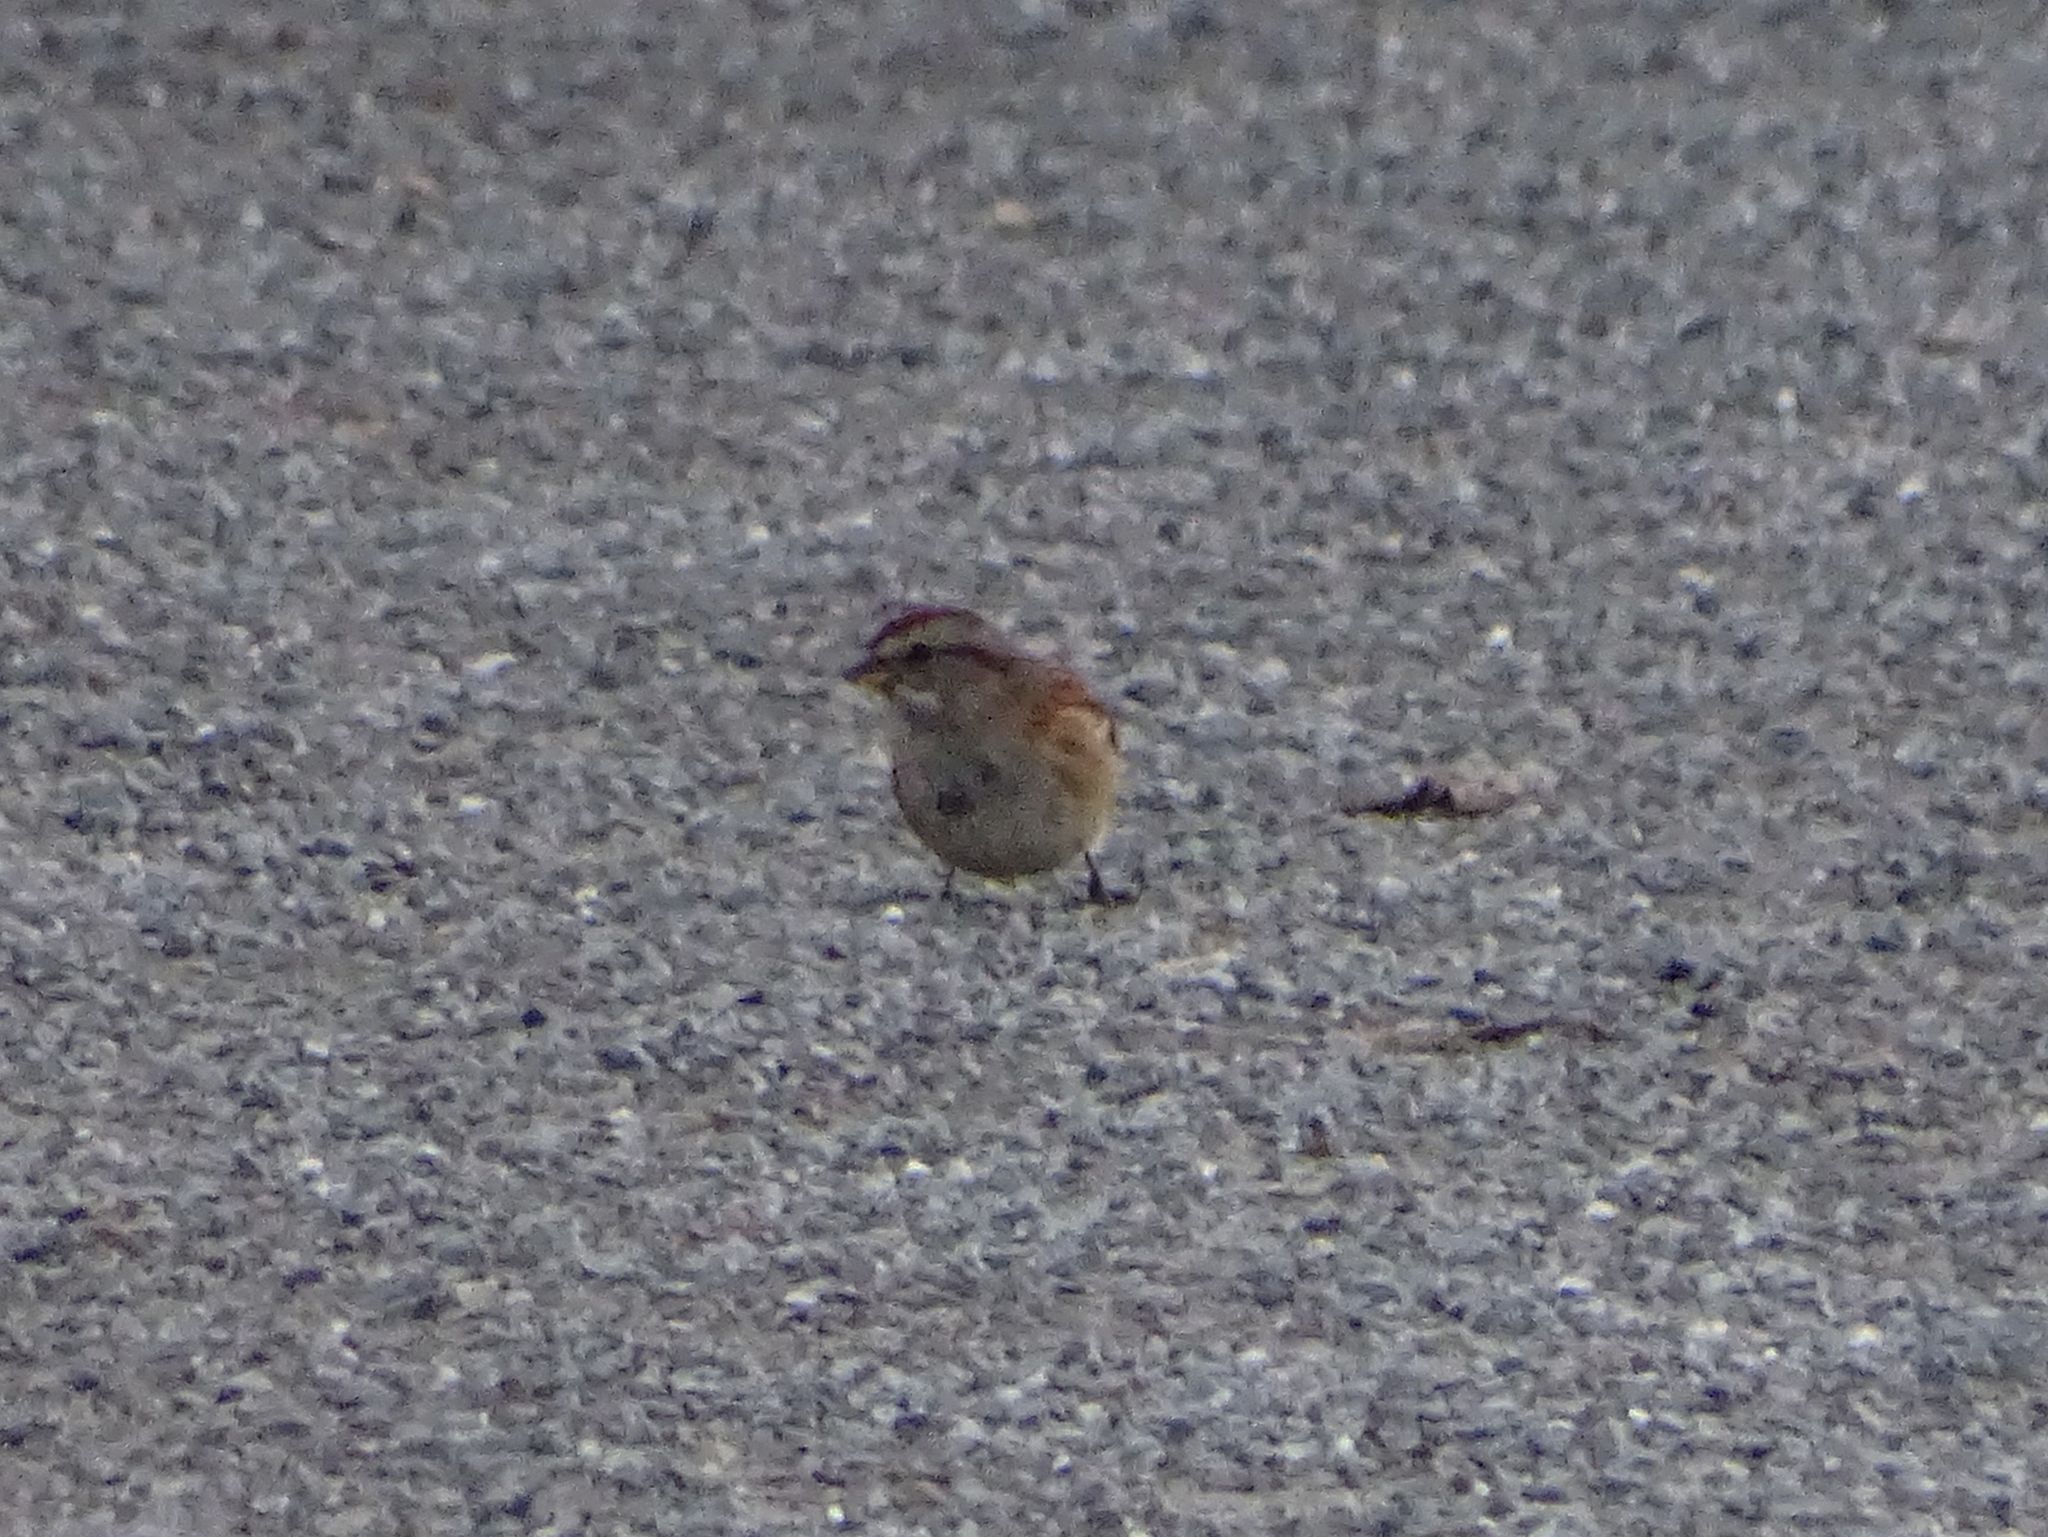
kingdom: Animalia
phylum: Chordata
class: Aves
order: Passeriformes
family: Passerellidae
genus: Spizelloides
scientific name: Spizelloides arborea
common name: American tree sparrow
